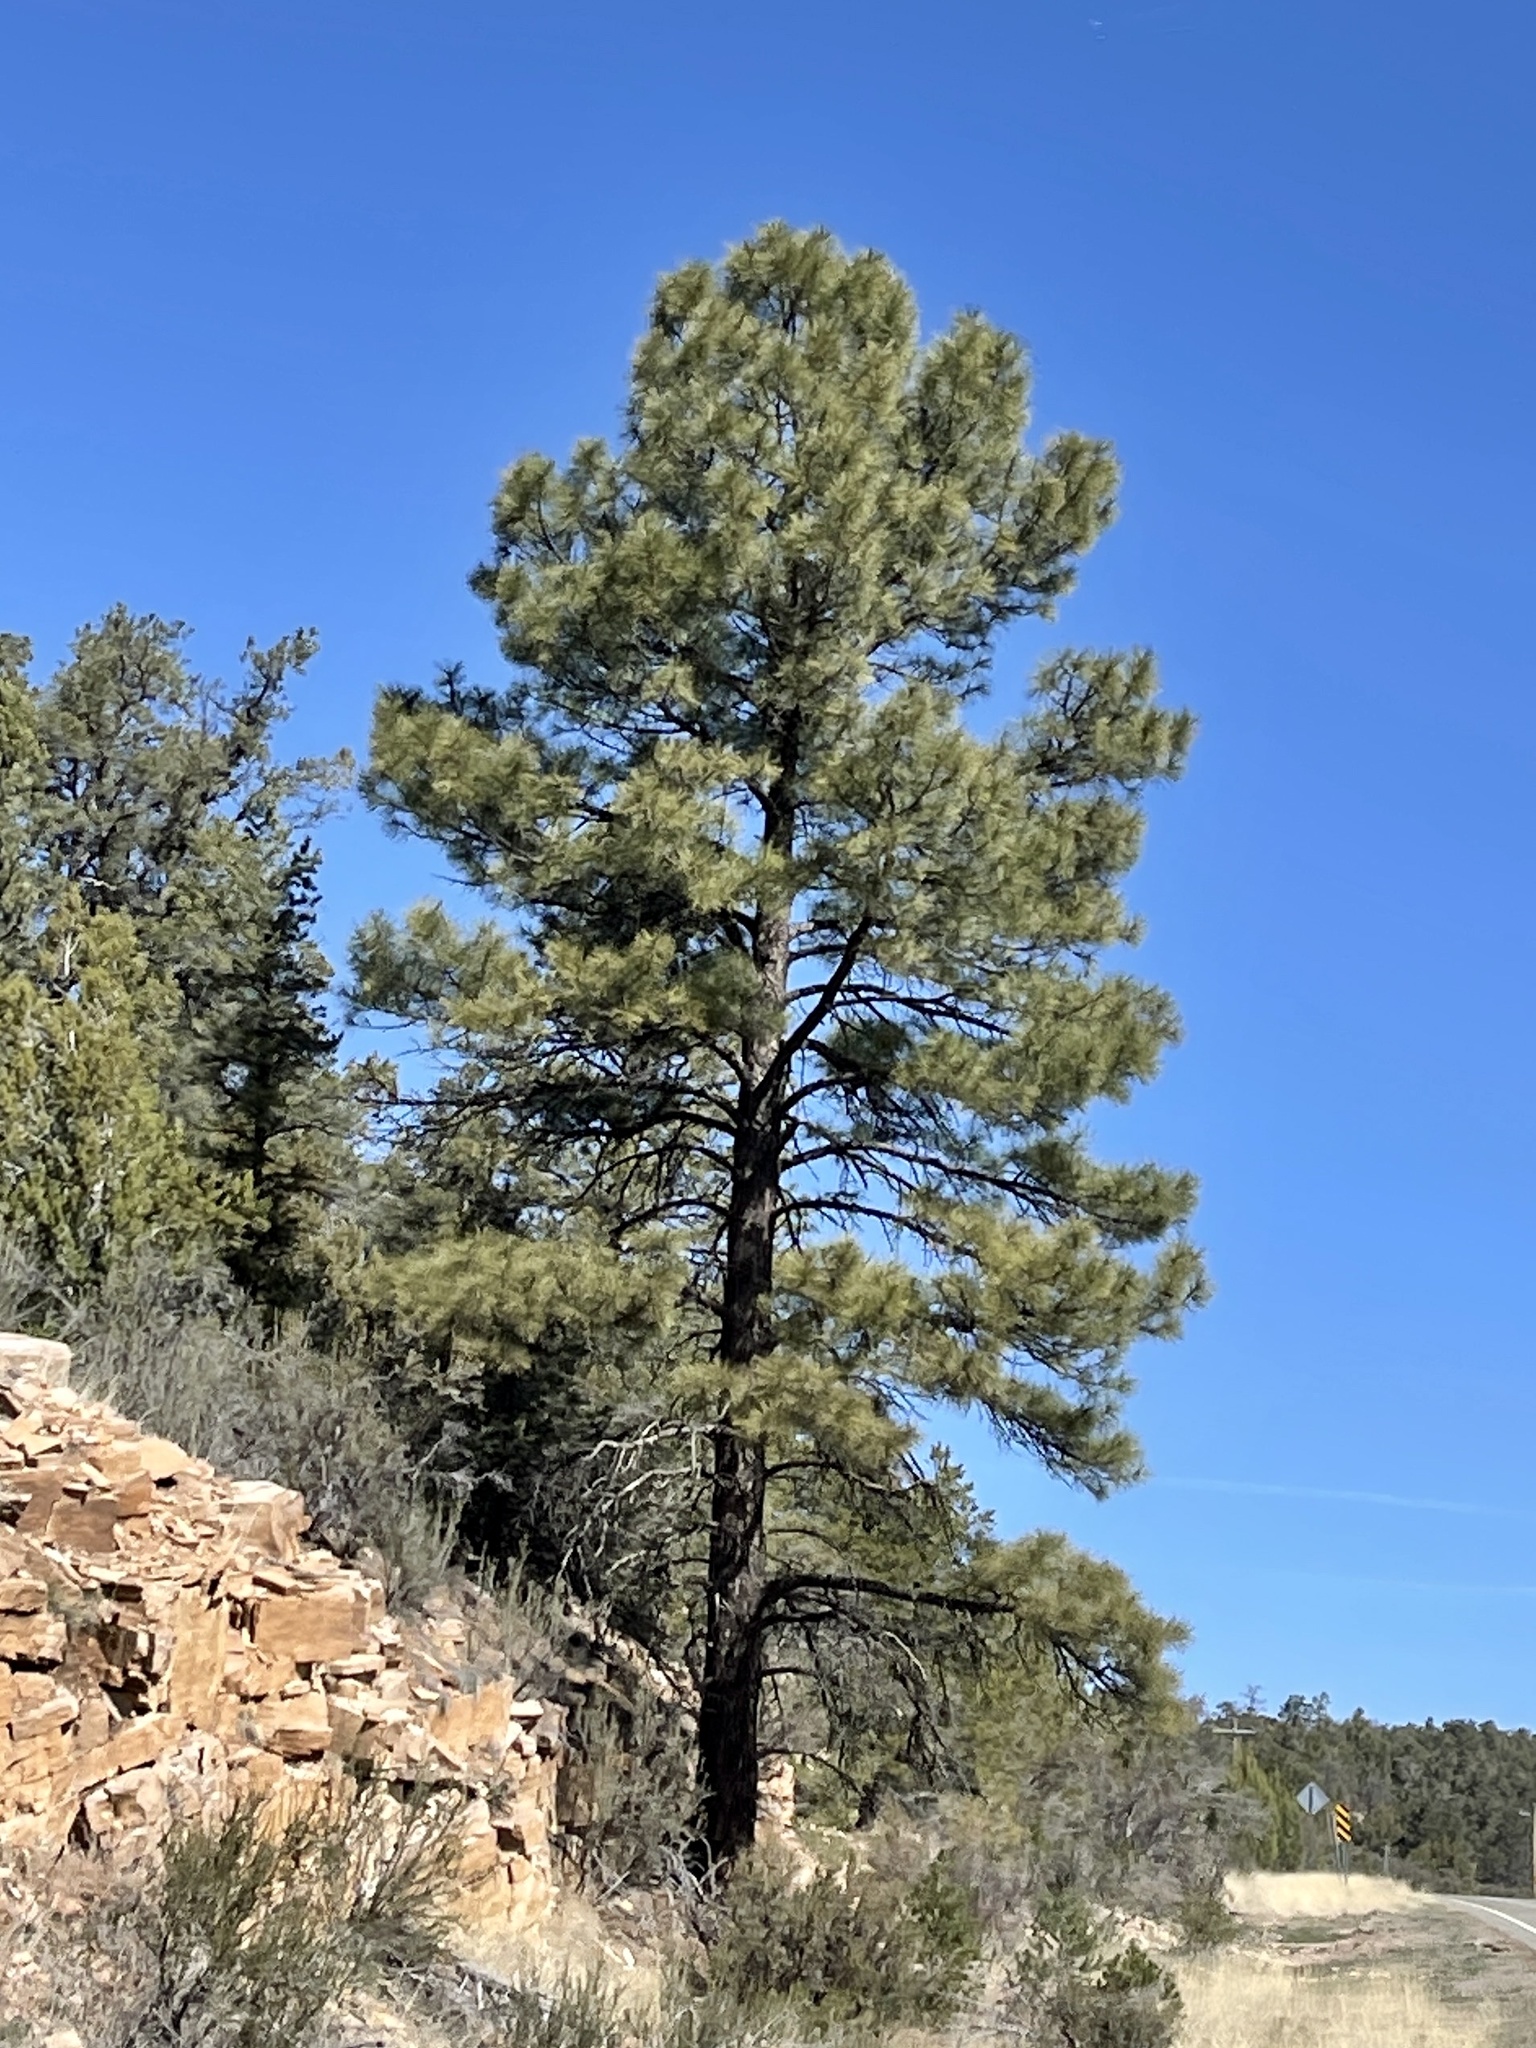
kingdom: Plantae
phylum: Tracheophyta
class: Pinopsida
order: Pinales
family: Pinaceae
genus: Pinus
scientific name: Pinus ponderosa
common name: Western yellow-pine
